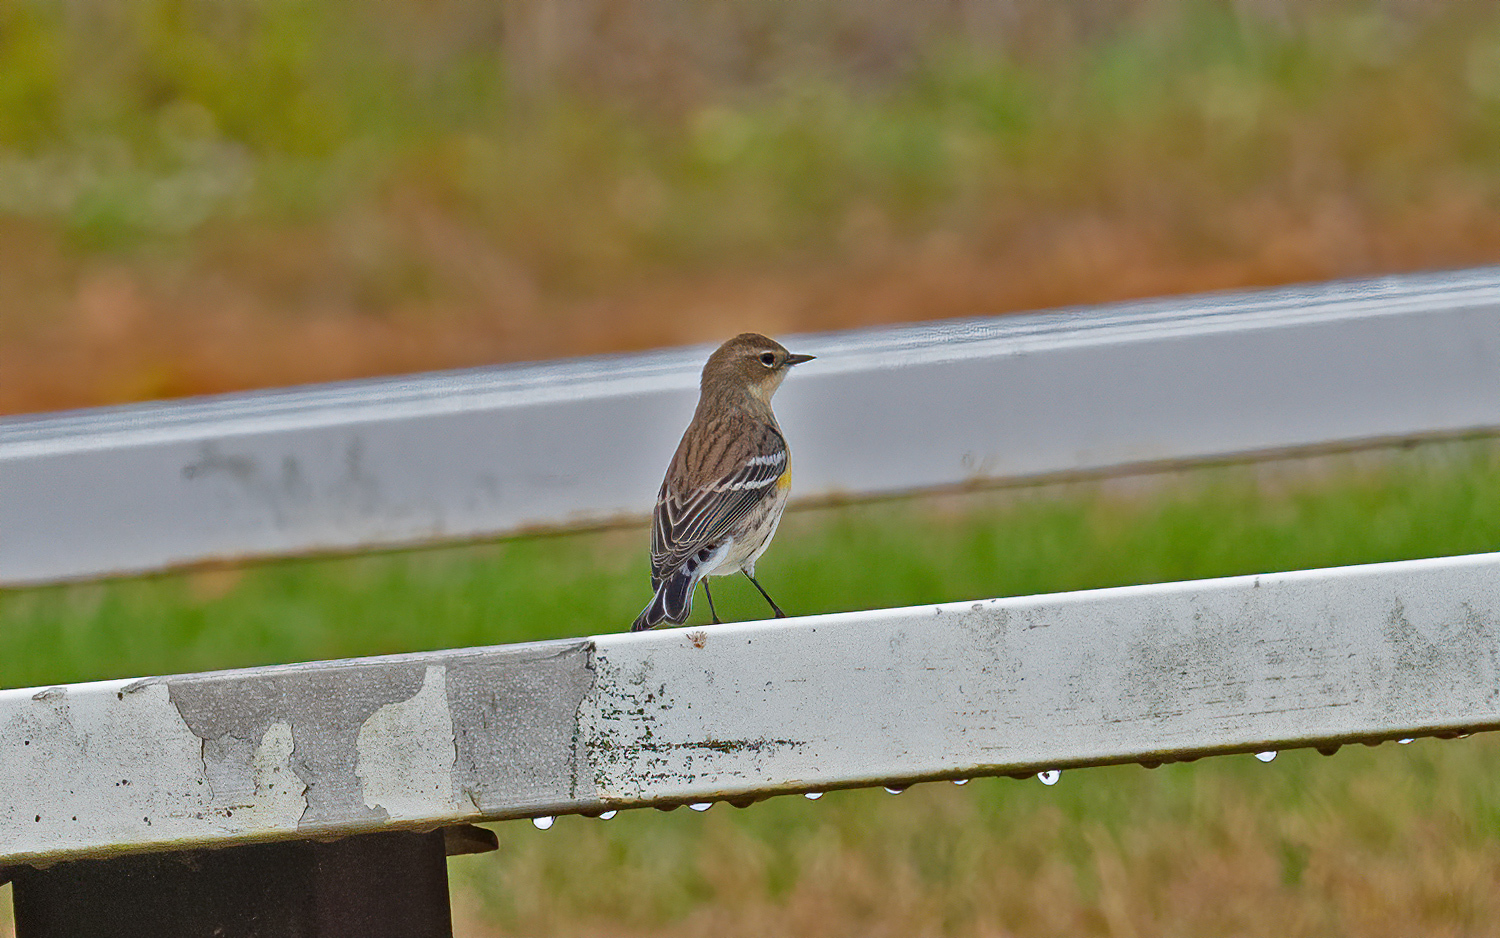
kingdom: Animalia
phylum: Chordata
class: Aves
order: Passeriformes
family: Parulidae
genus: Setophaga
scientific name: Setophaga coronata
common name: Myrtle warbler
